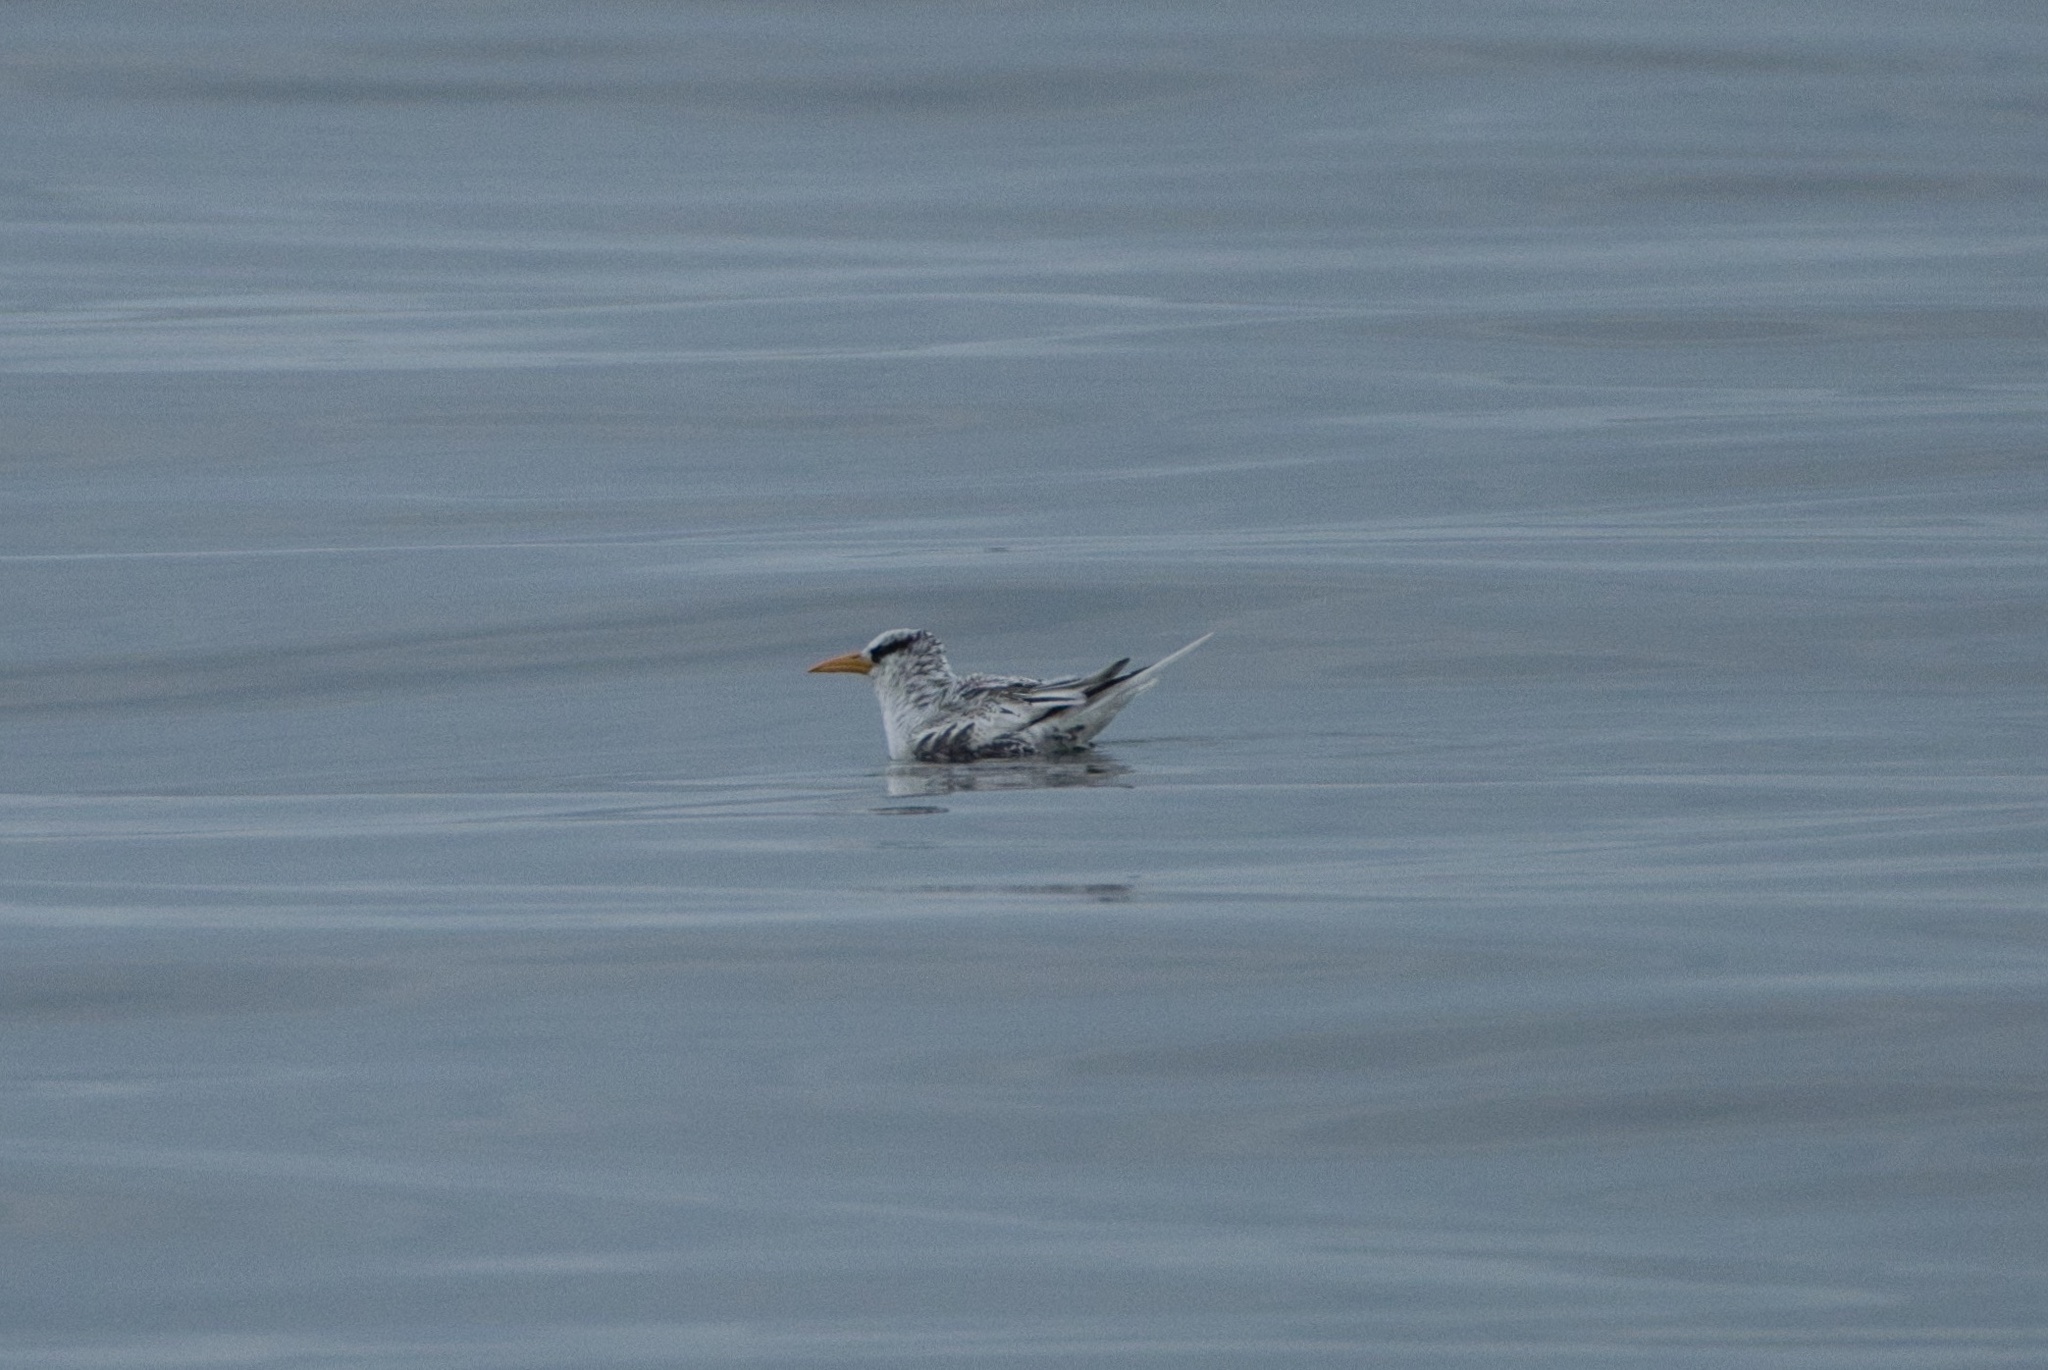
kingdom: Animalia
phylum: Chordata
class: Aves
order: Phaethontiformes
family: Phaethontidae
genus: Phaethon
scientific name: Phaethon aethereus
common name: Red-billed tropicbird
